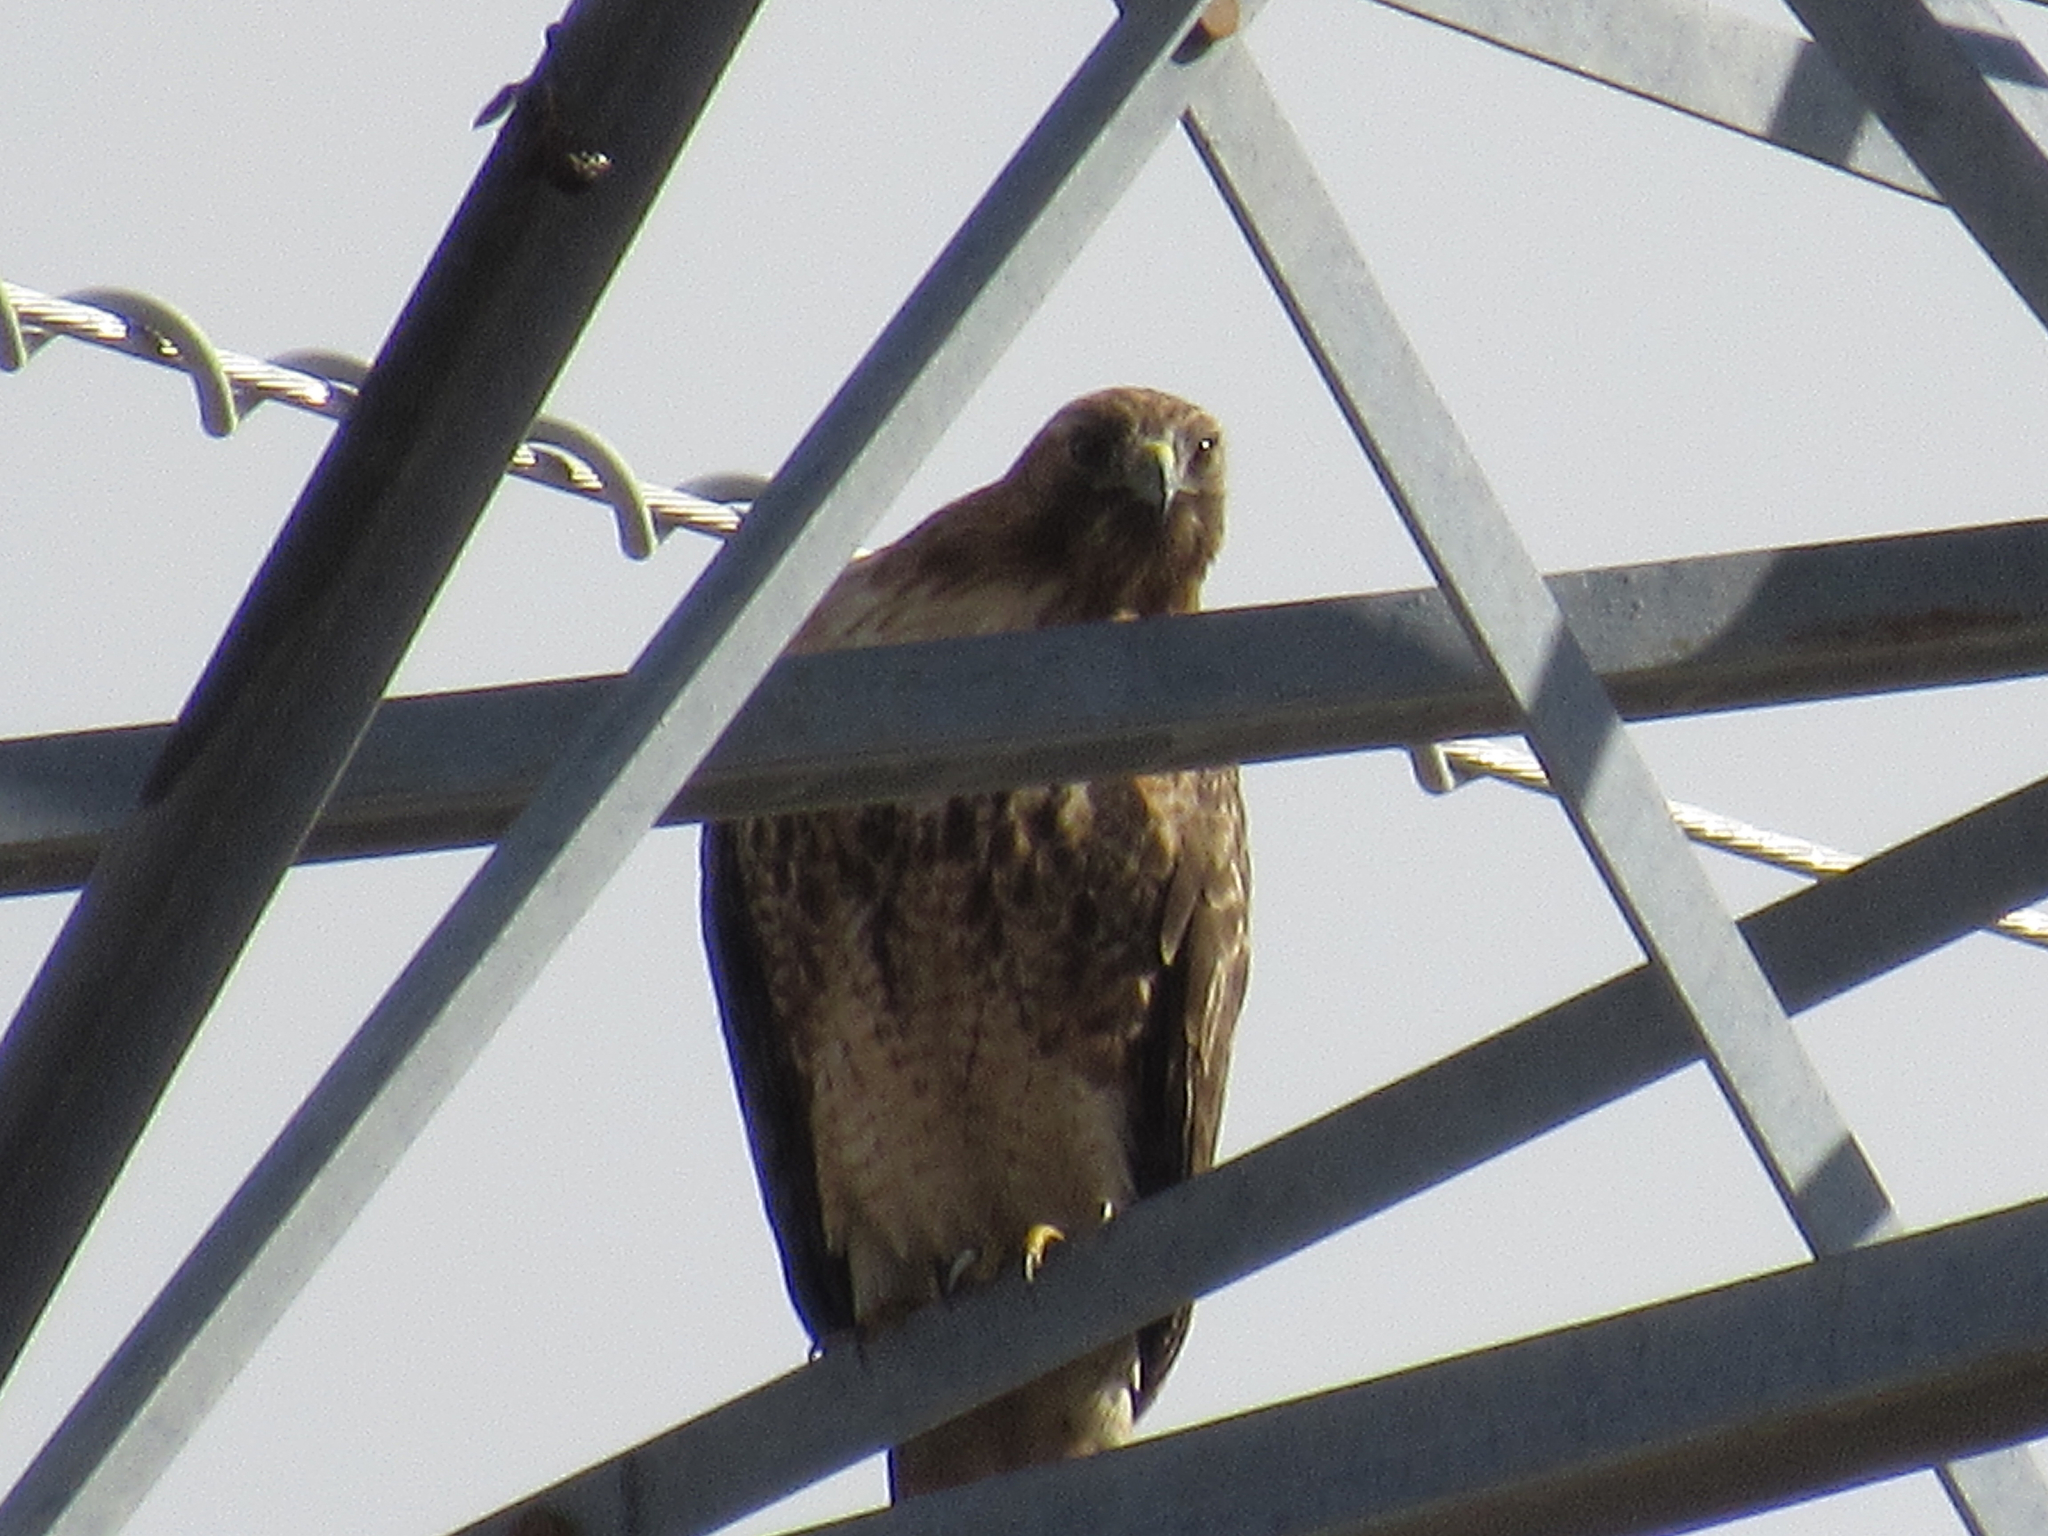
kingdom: Animalia
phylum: Chordata
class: Aves
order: Accipitriformes
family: Accipitridae
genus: Buteo
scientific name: Buteo jamaicensis
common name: Red-tailed hawk
